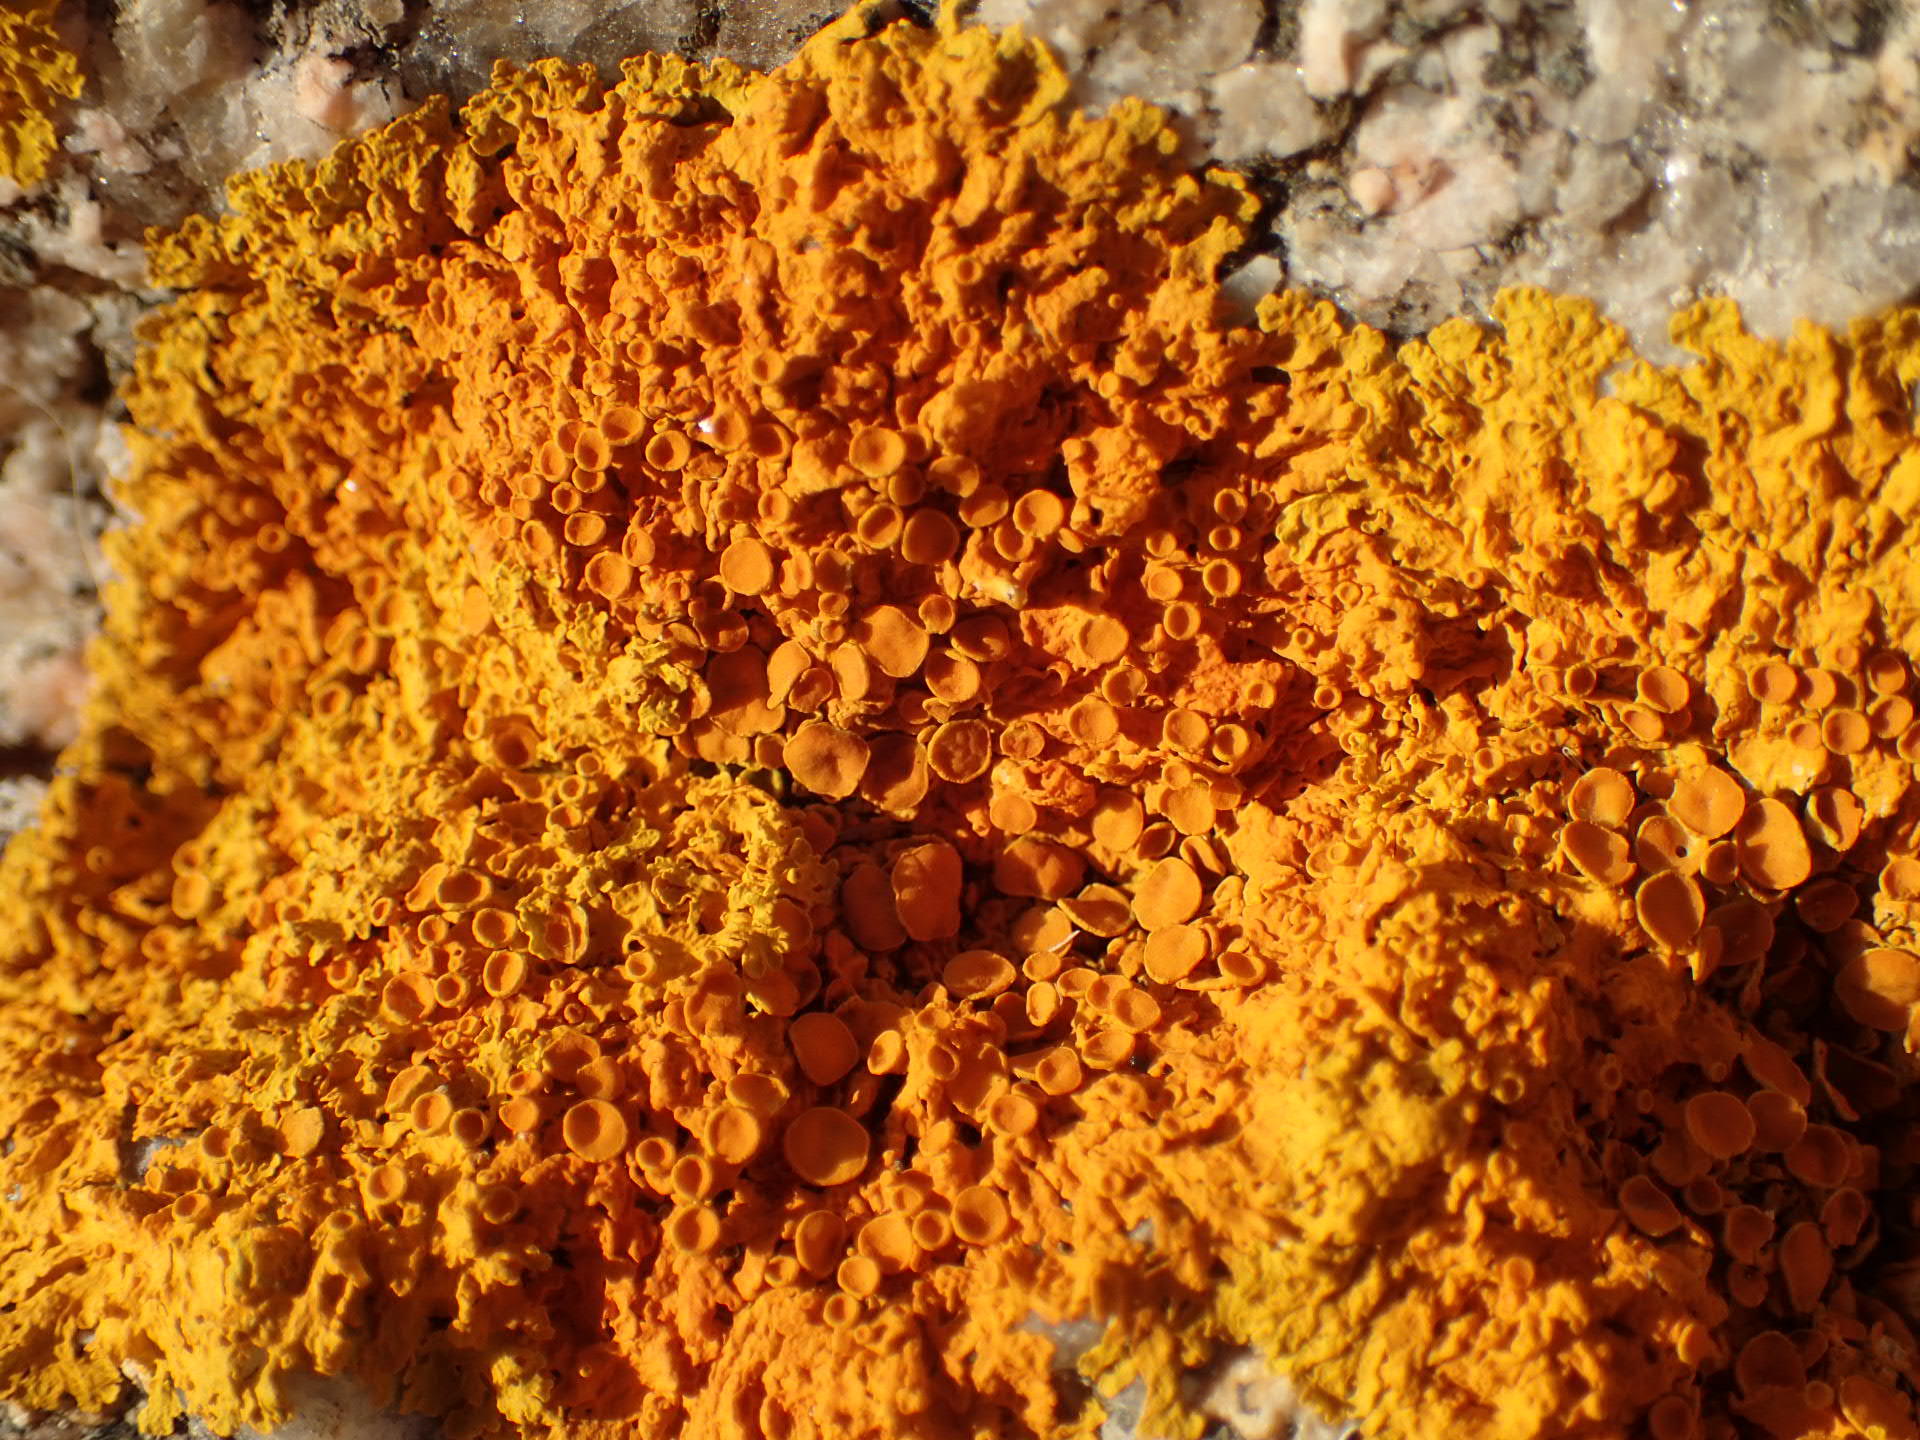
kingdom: Fungi
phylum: Ascomycota
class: Lecanoromycetes
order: Teloschistales
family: Teloschistaceae
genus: Xanthoria
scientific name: Xanthoria parietina
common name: Common orange lichen
